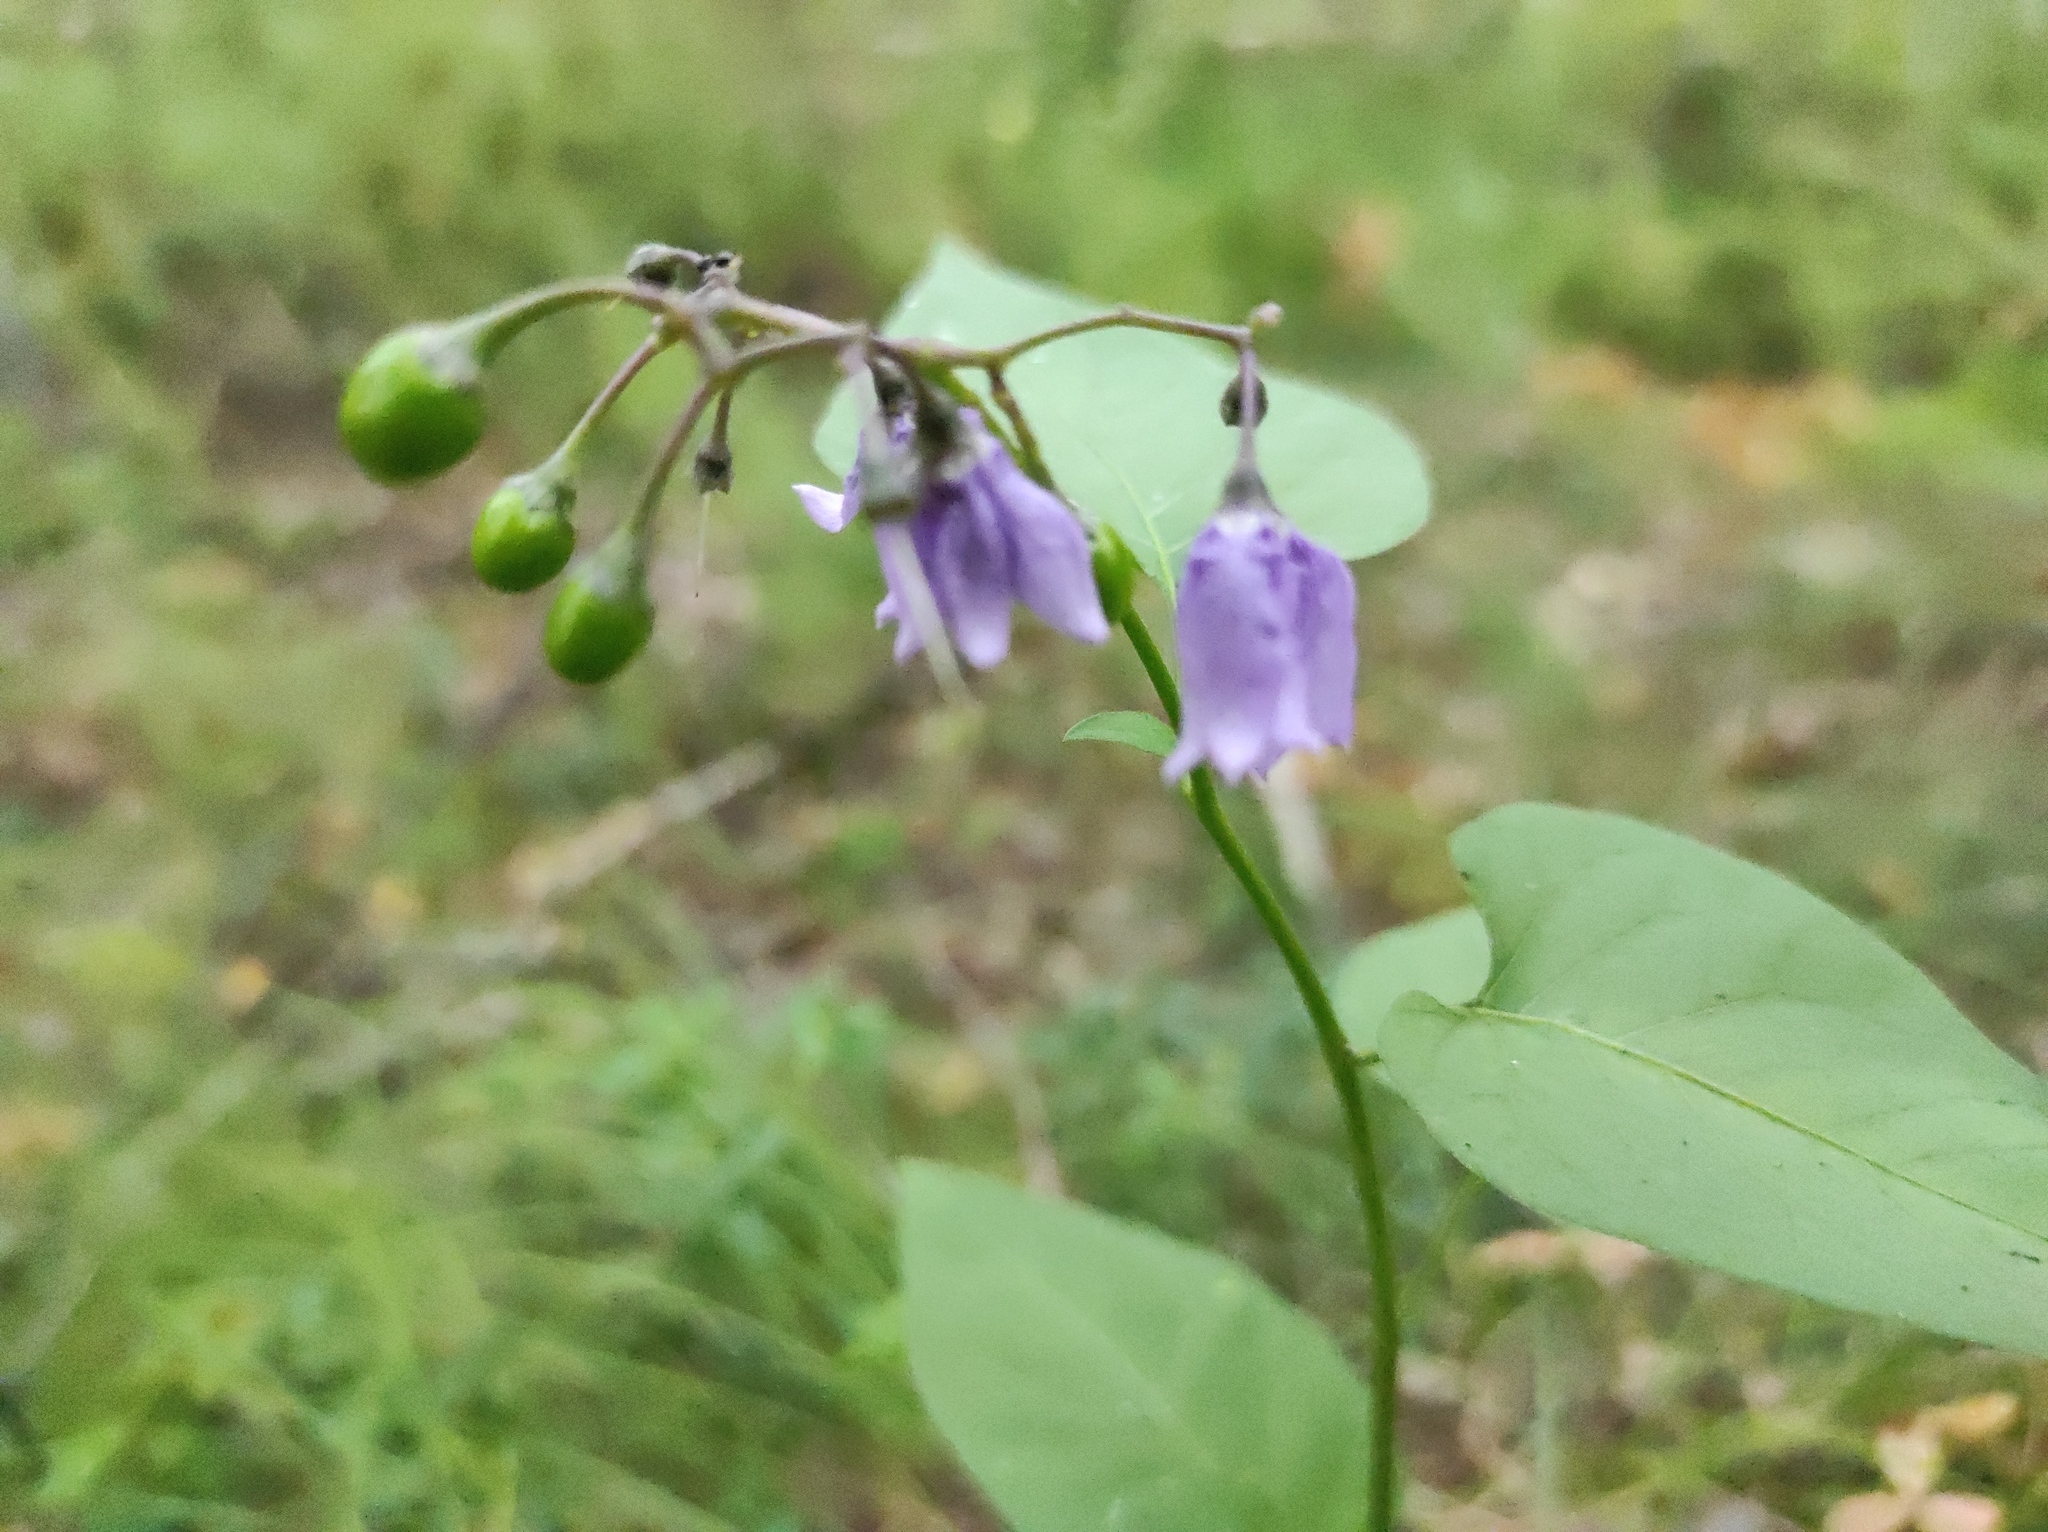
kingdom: Plantae
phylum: Tracheophyta
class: Magnoliopsida
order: Solanales
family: Solanaceae
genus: Solanum
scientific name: Solanum dulcamara
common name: Climbing nightshade
